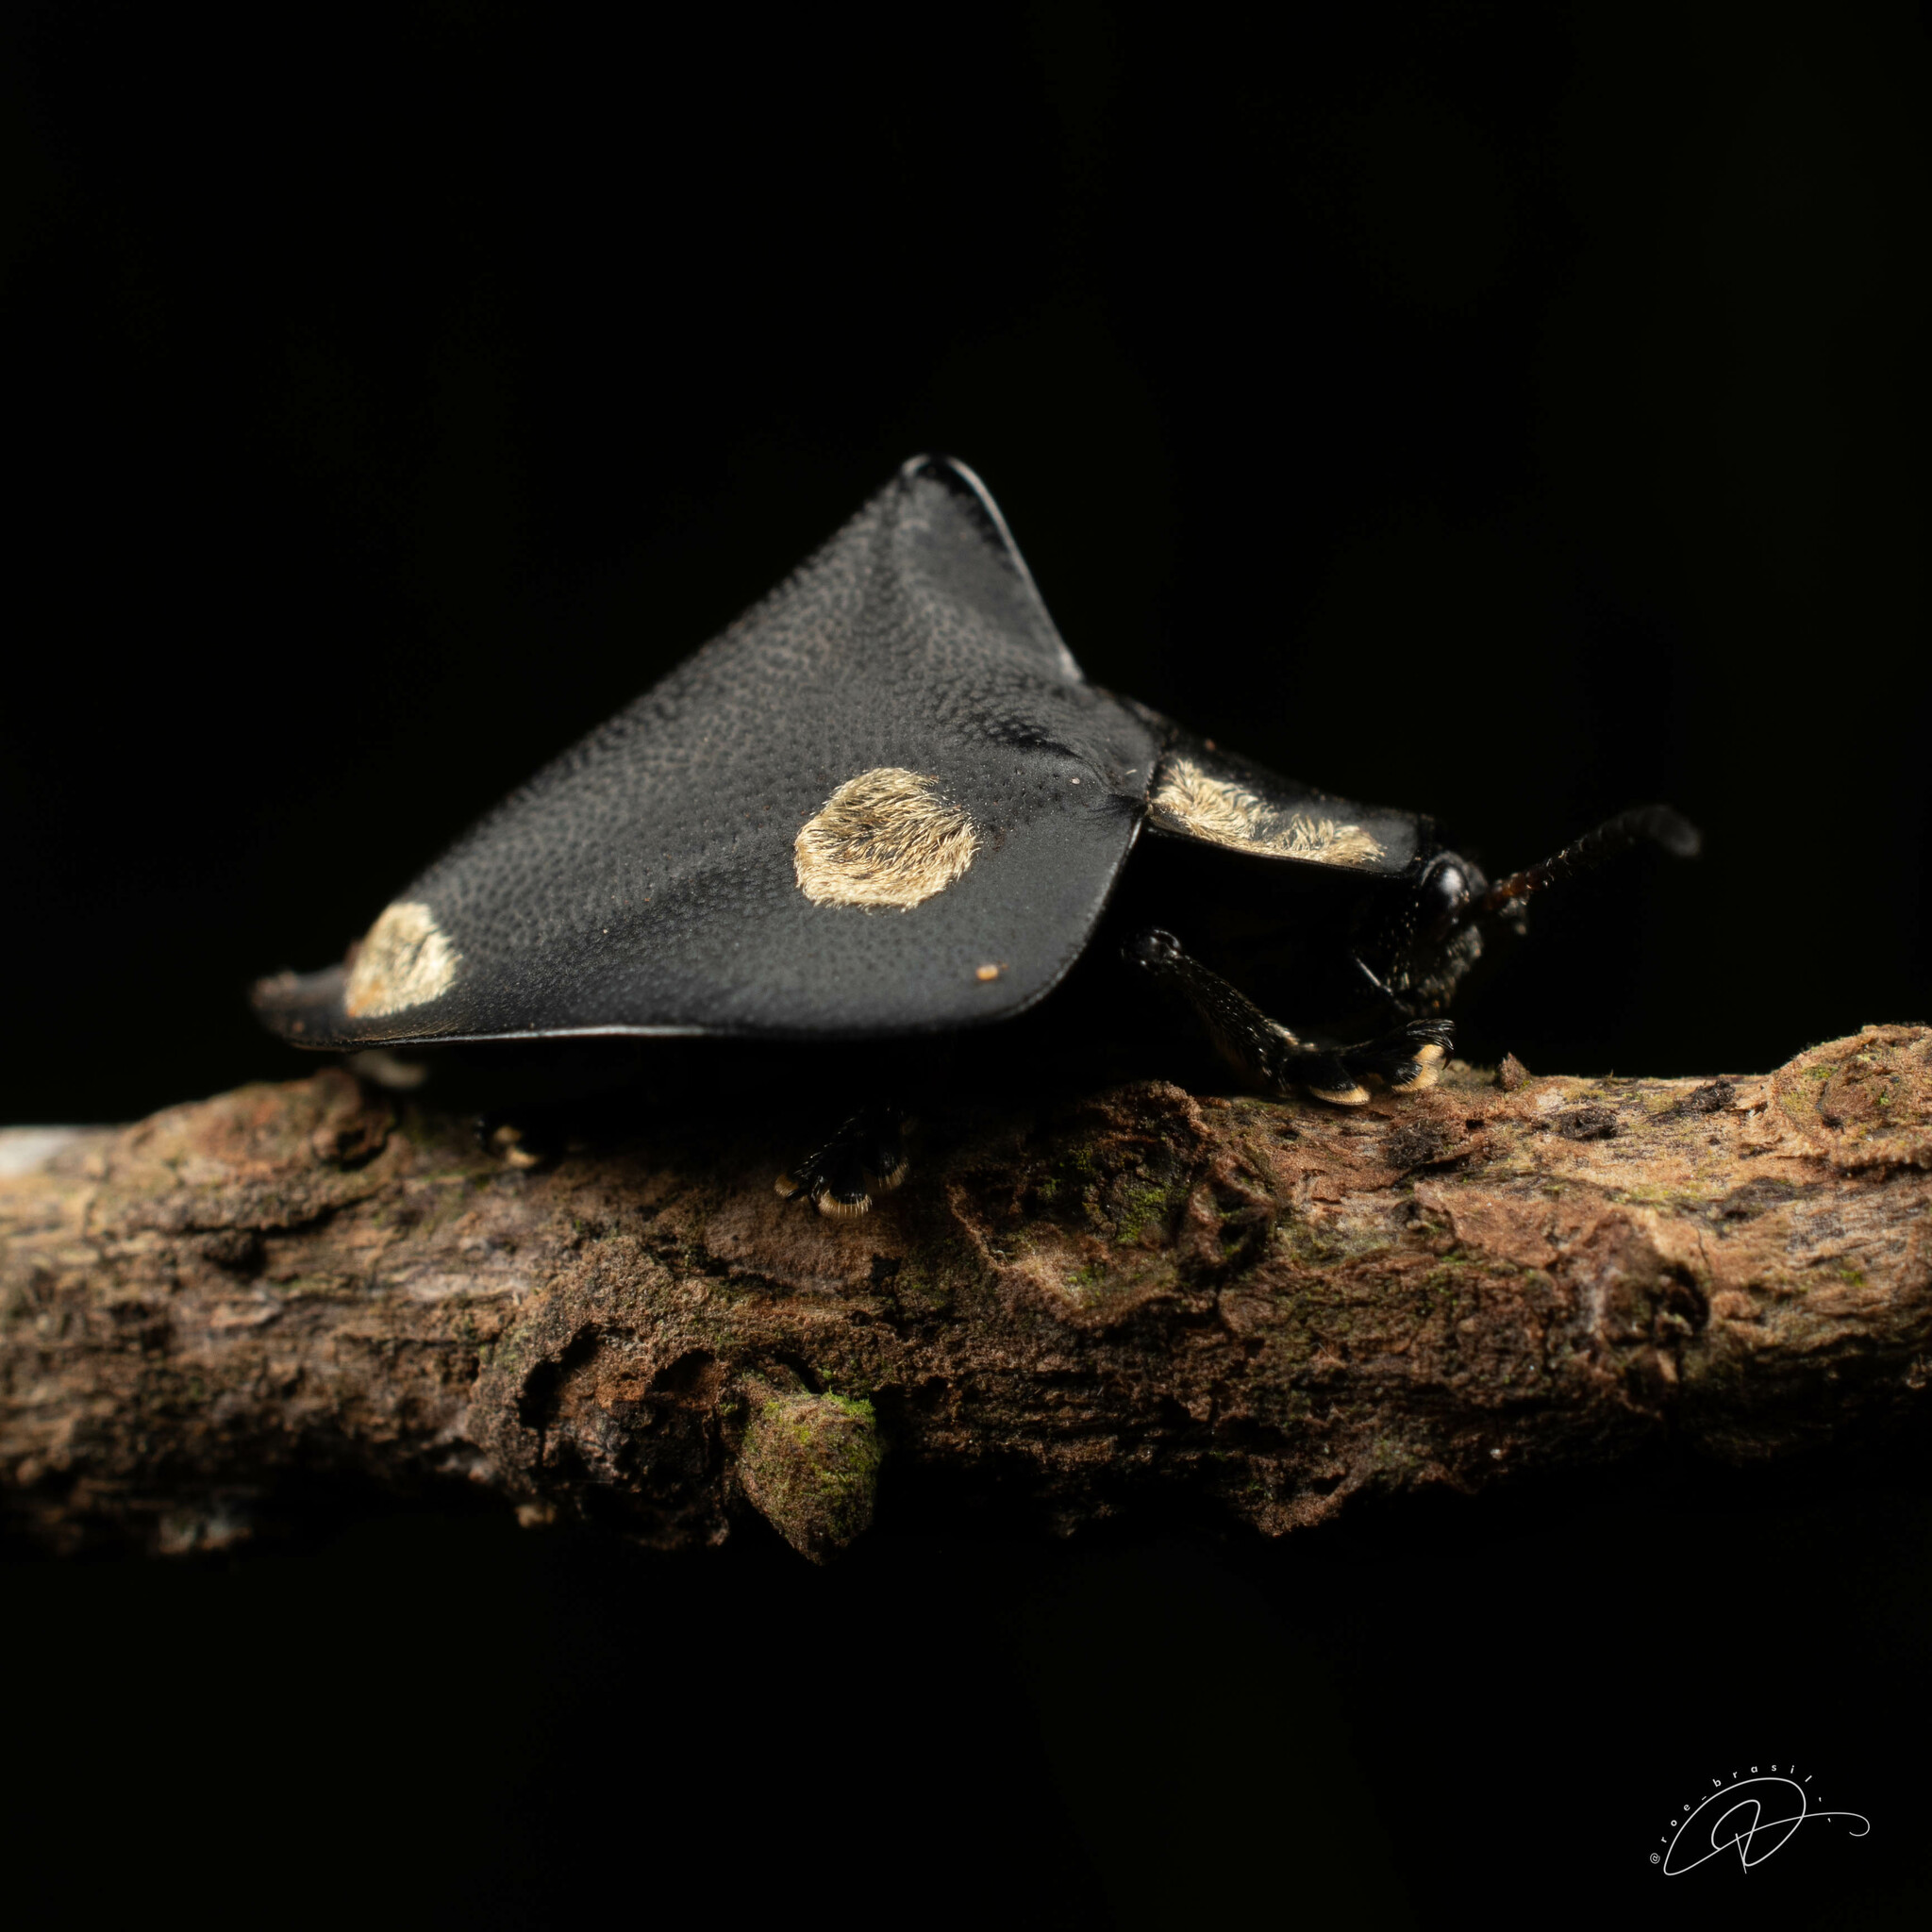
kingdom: Animalia
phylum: Arthropoda
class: Insecta
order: Coleoptera
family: Chrysomelidae
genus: Mesomphalia
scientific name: Mesomphalia turrita
